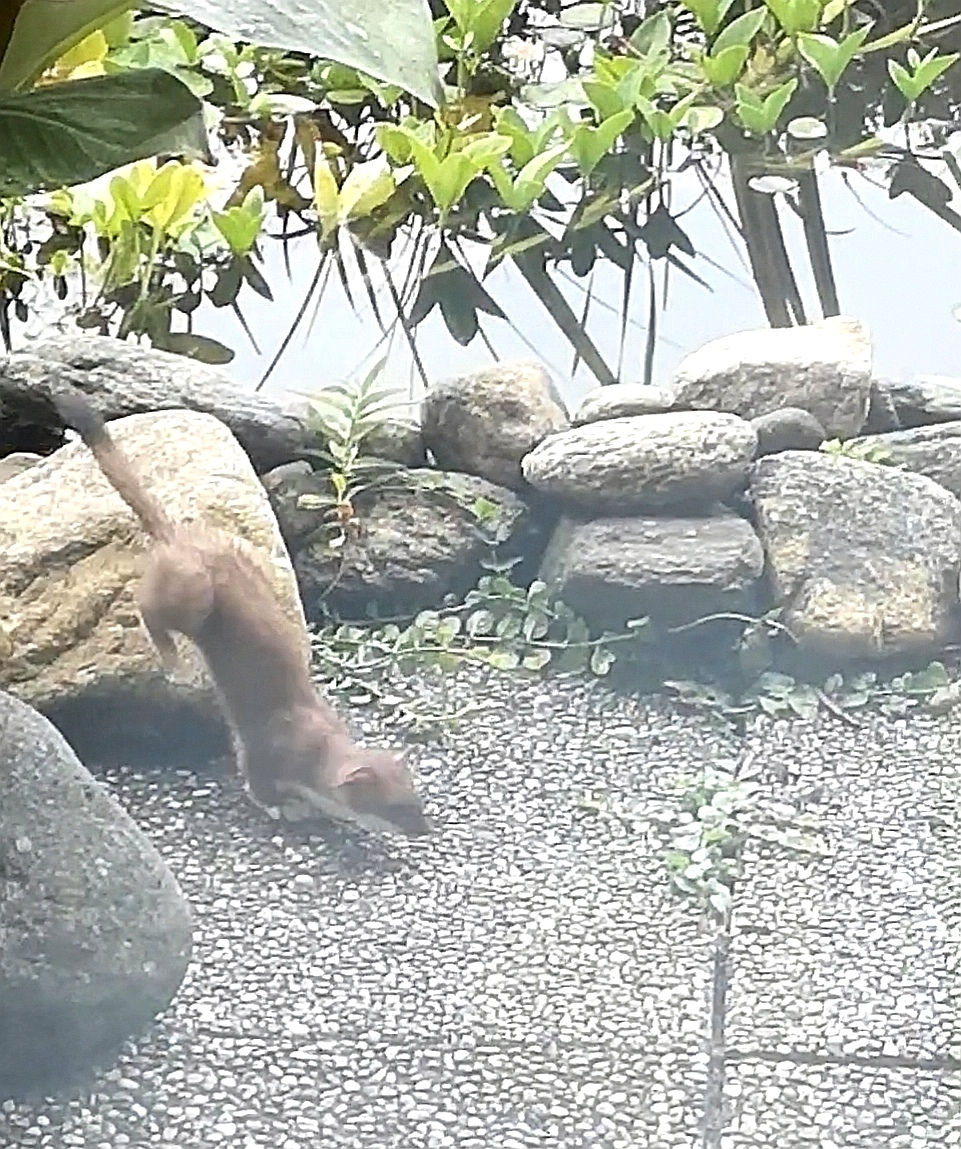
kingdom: Animalia
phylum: Chordata
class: Mammalia
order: Carnivora
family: Mustelidae
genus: Mustela
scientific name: Mustela erminea
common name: Stoat
